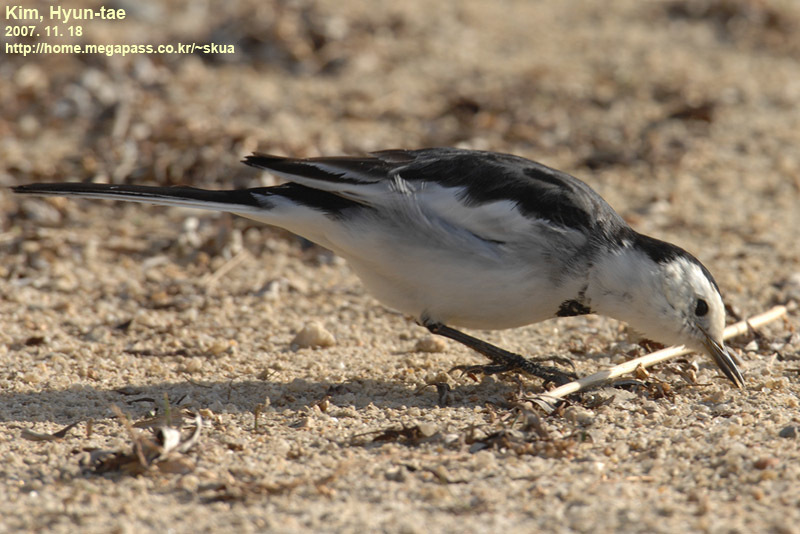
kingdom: Animalia
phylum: Chordata
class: Aves
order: Passeriformes
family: Motacillidae
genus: Motacilla
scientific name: Motacilla alba
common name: White wagtail
